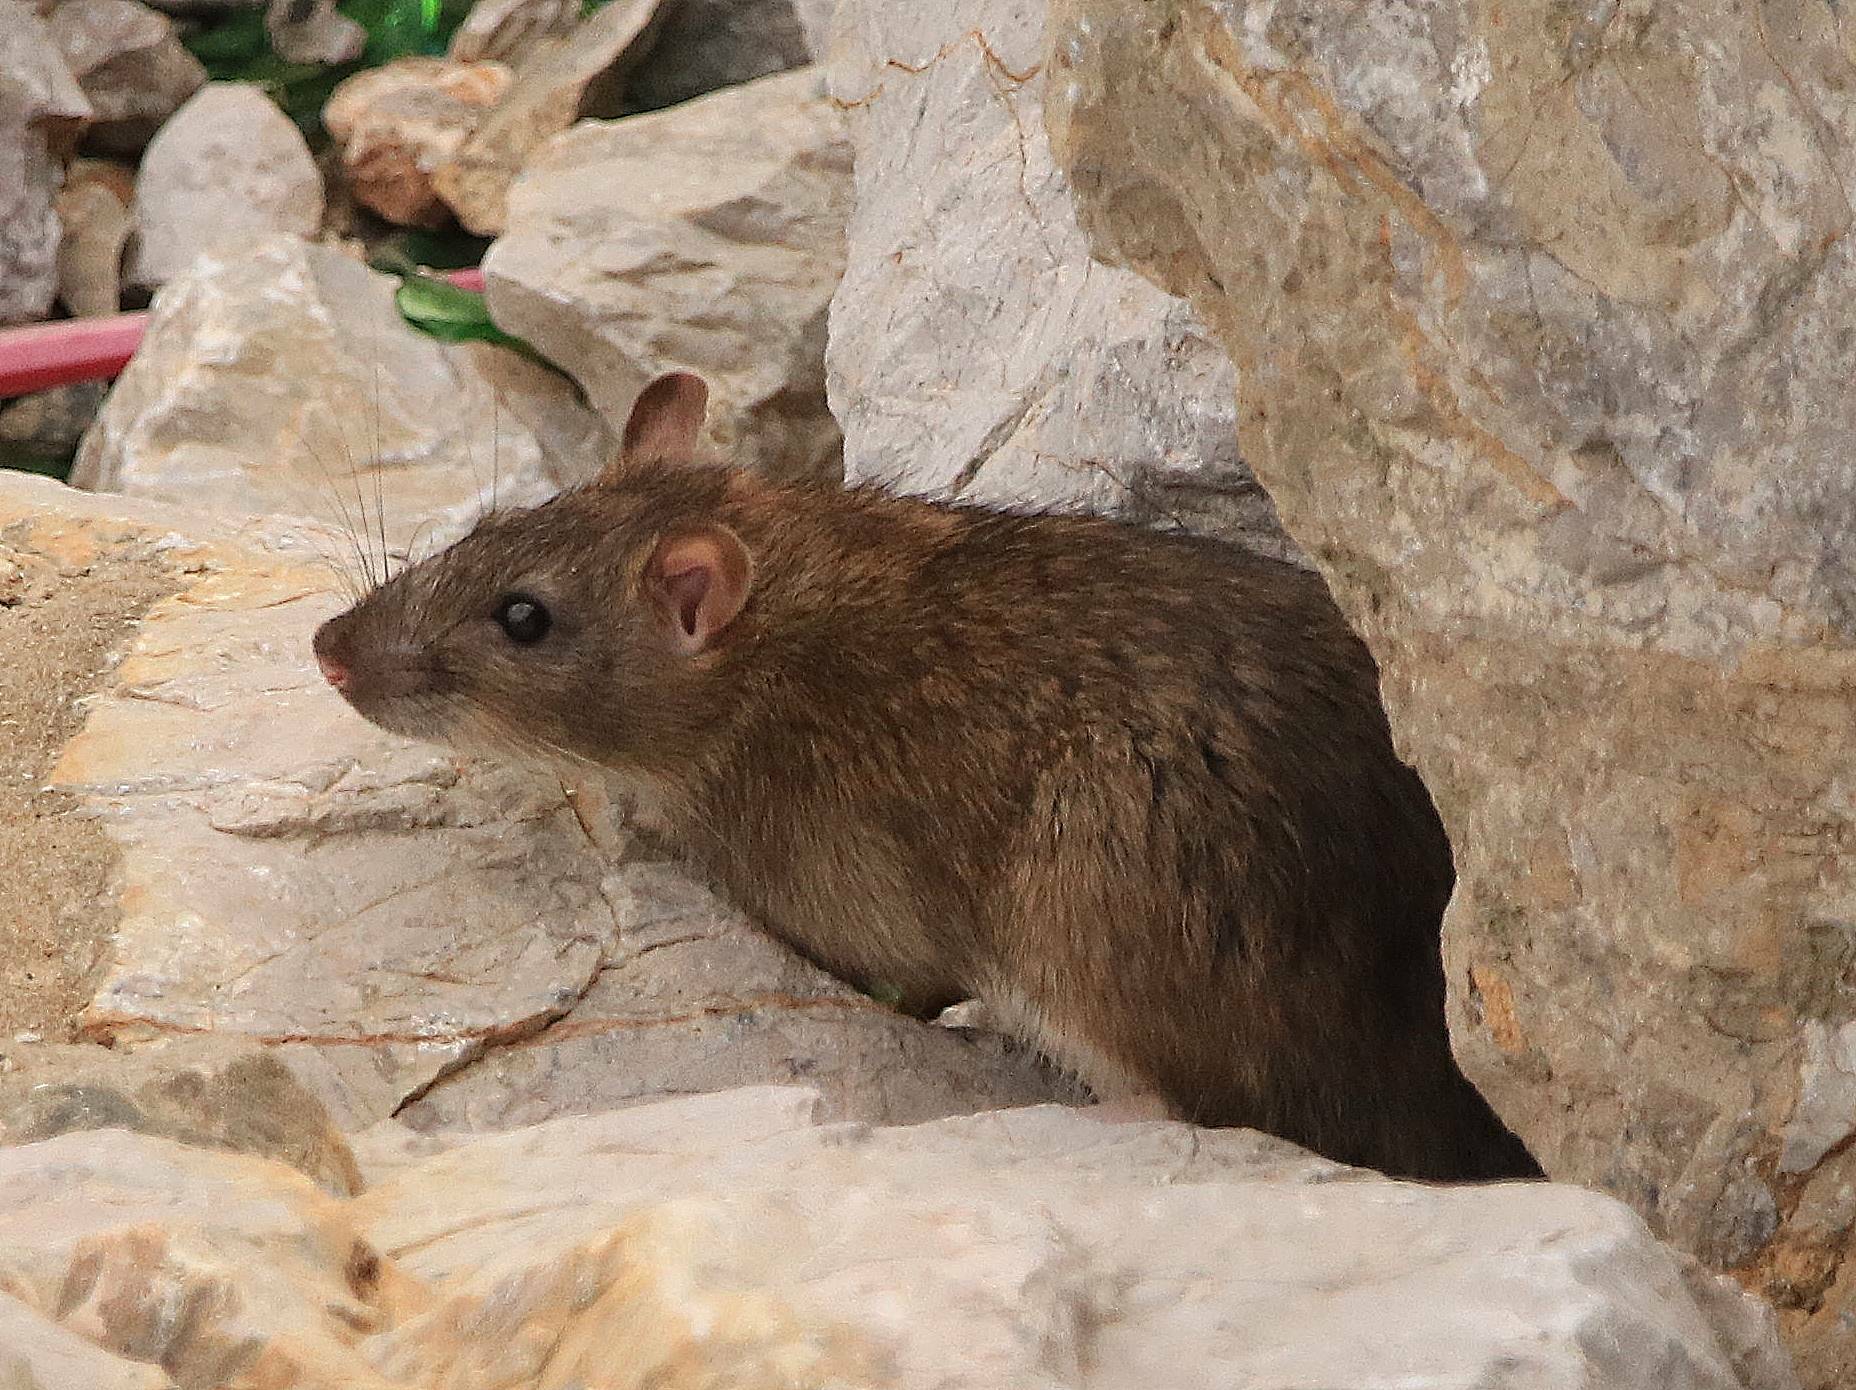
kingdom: Animalia
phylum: Chordata
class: Mammalia
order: Rodentia
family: Muridae
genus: Rattus
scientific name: Rattus rattus
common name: Black rat
